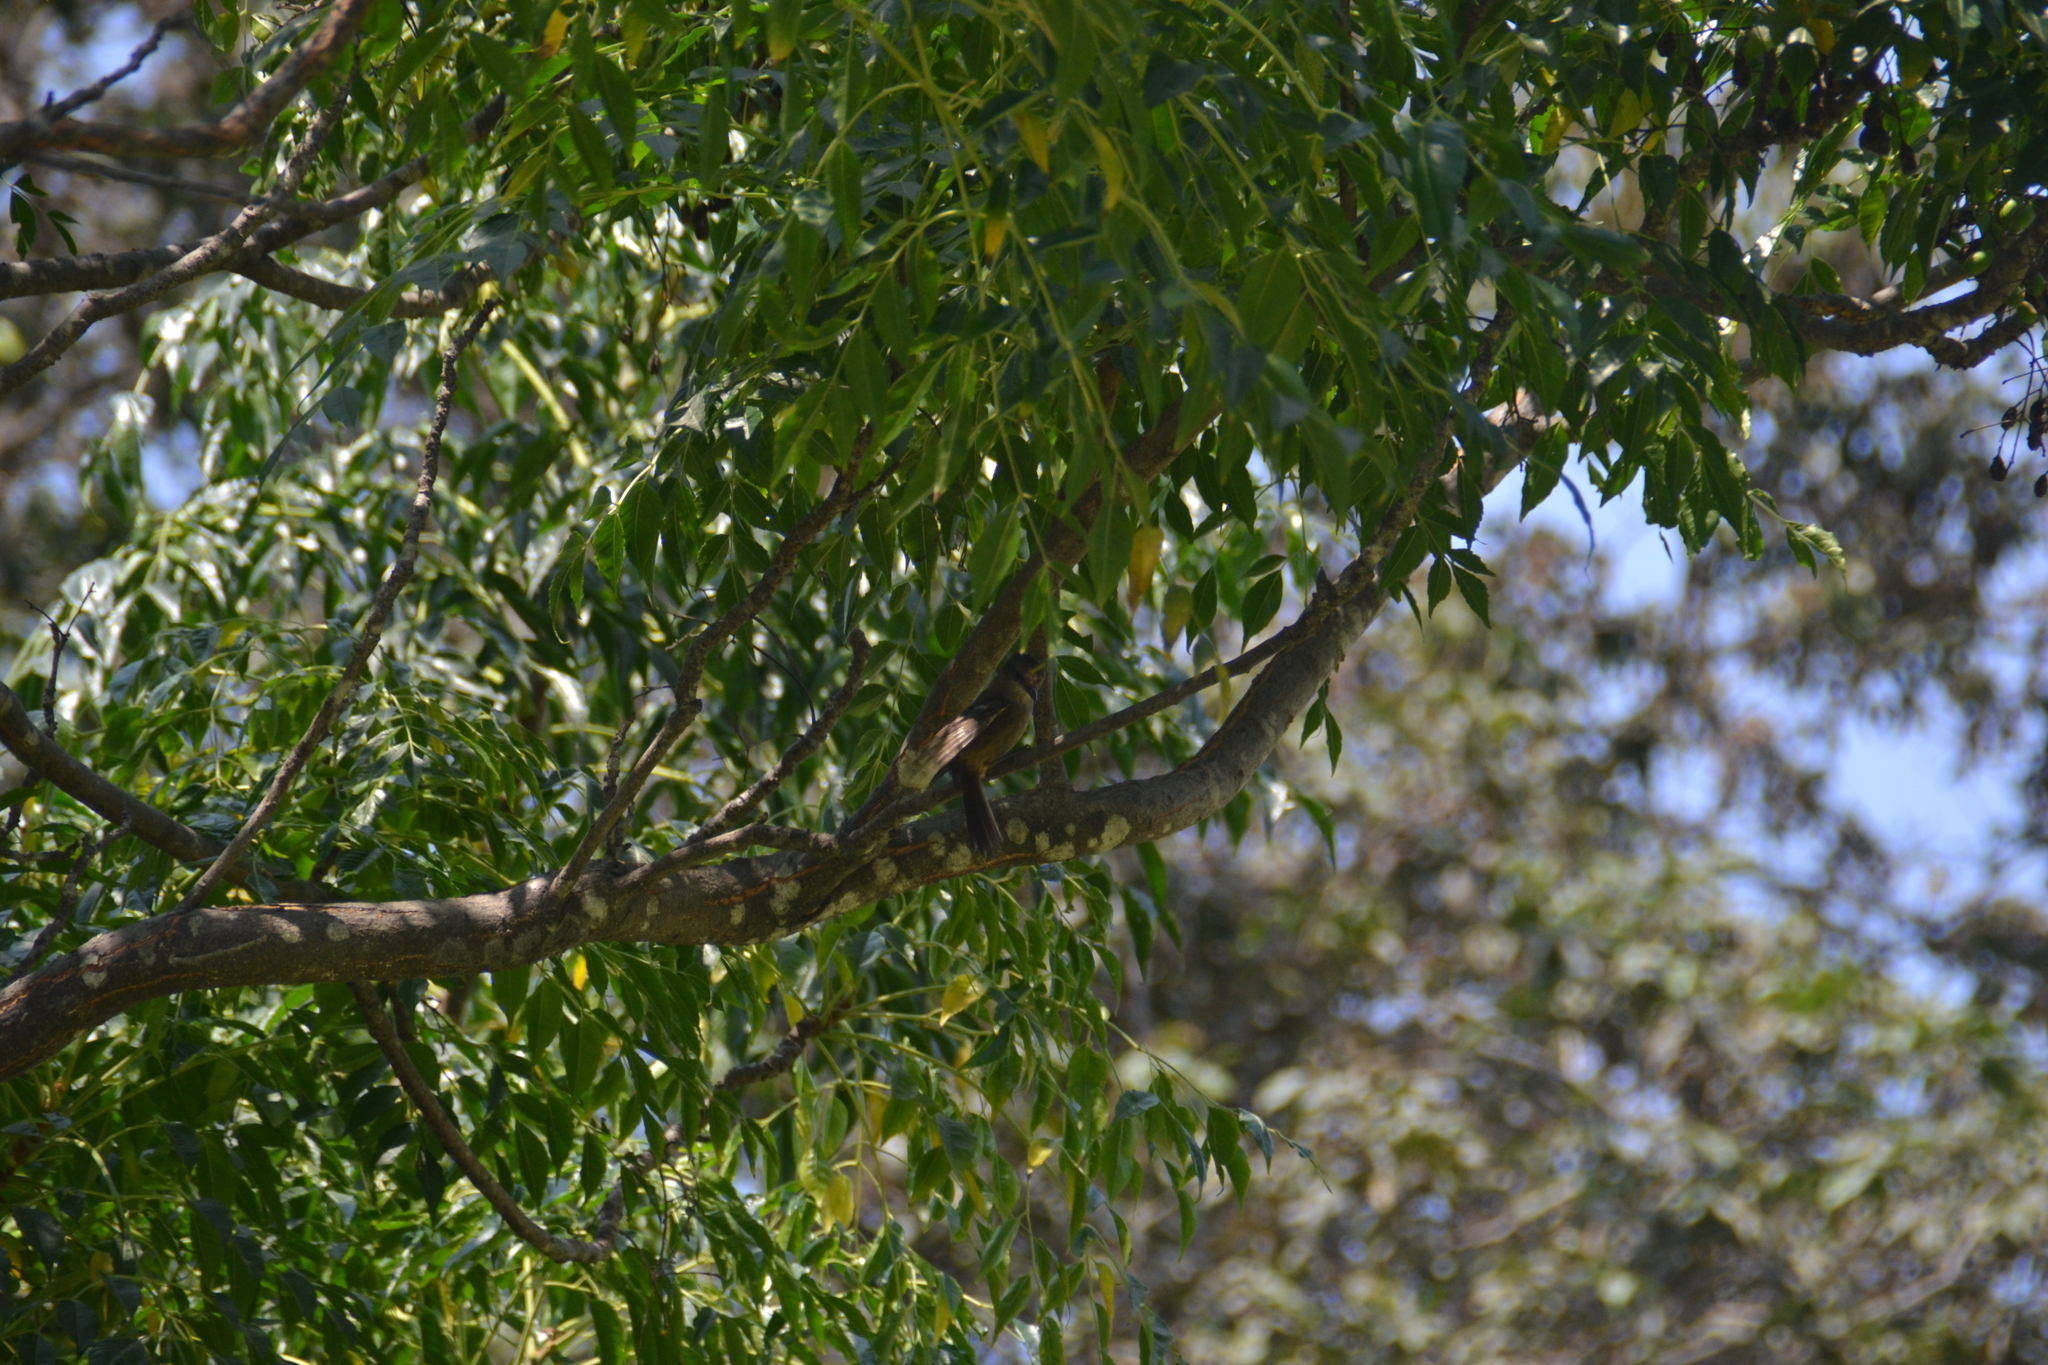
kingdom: Animalia
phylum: Chordata
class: Aves
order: Passeriformes
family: Tyrannidae
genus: Pyrocephalus
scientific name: Pyrocephalus rubinus
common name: Vermilion flycatcher
